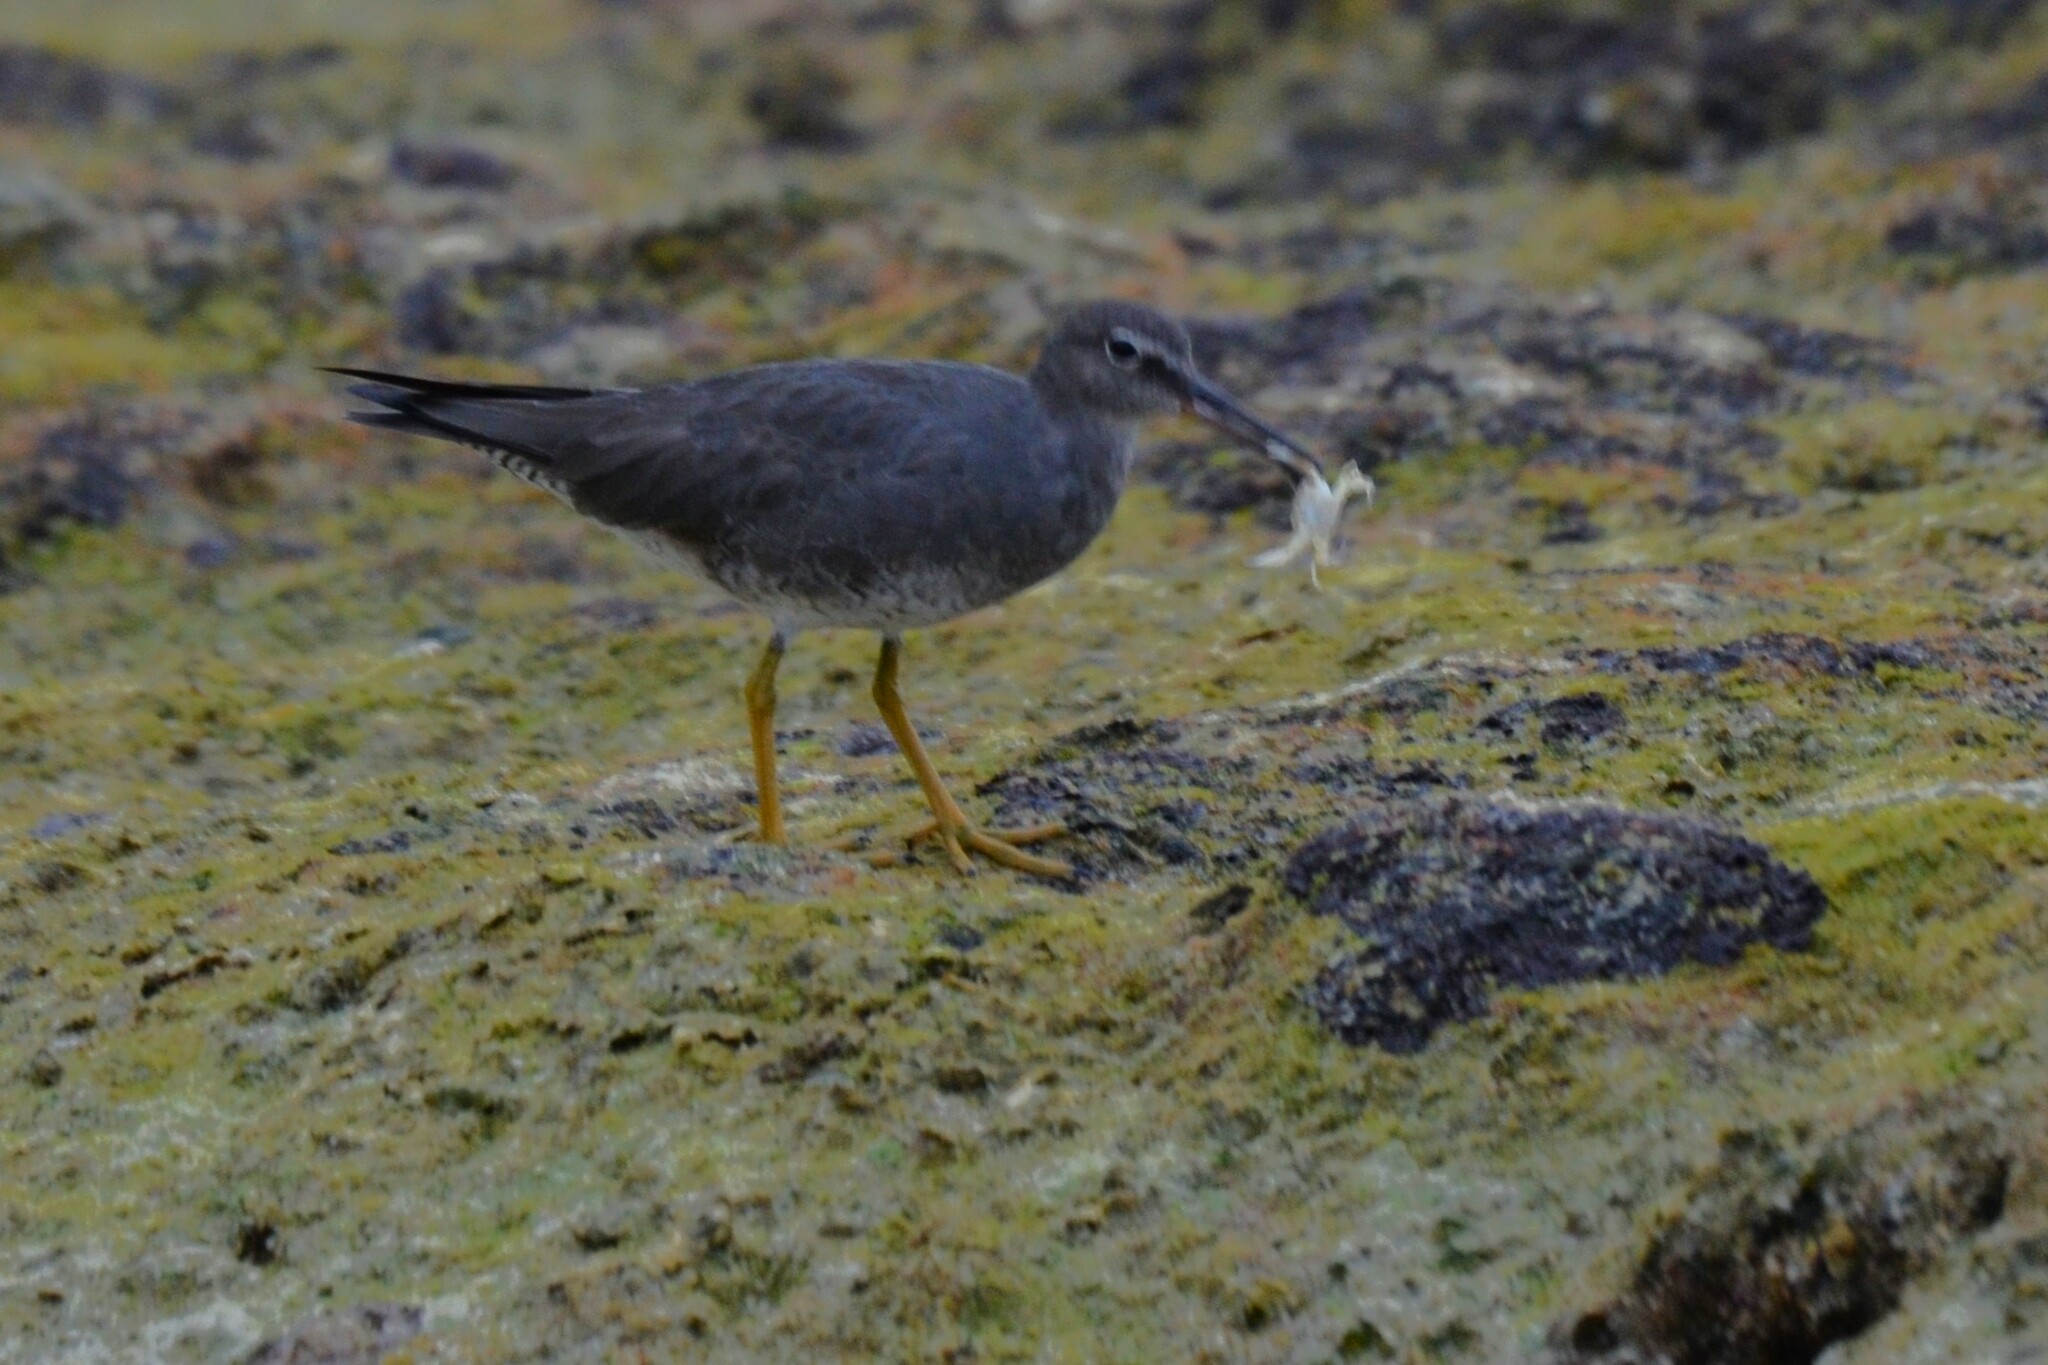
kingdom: Animalia
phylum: Chordata
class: Aves
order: Charadriiformes
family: Scolopacidae
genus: Tringa
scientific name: Tringa incana
